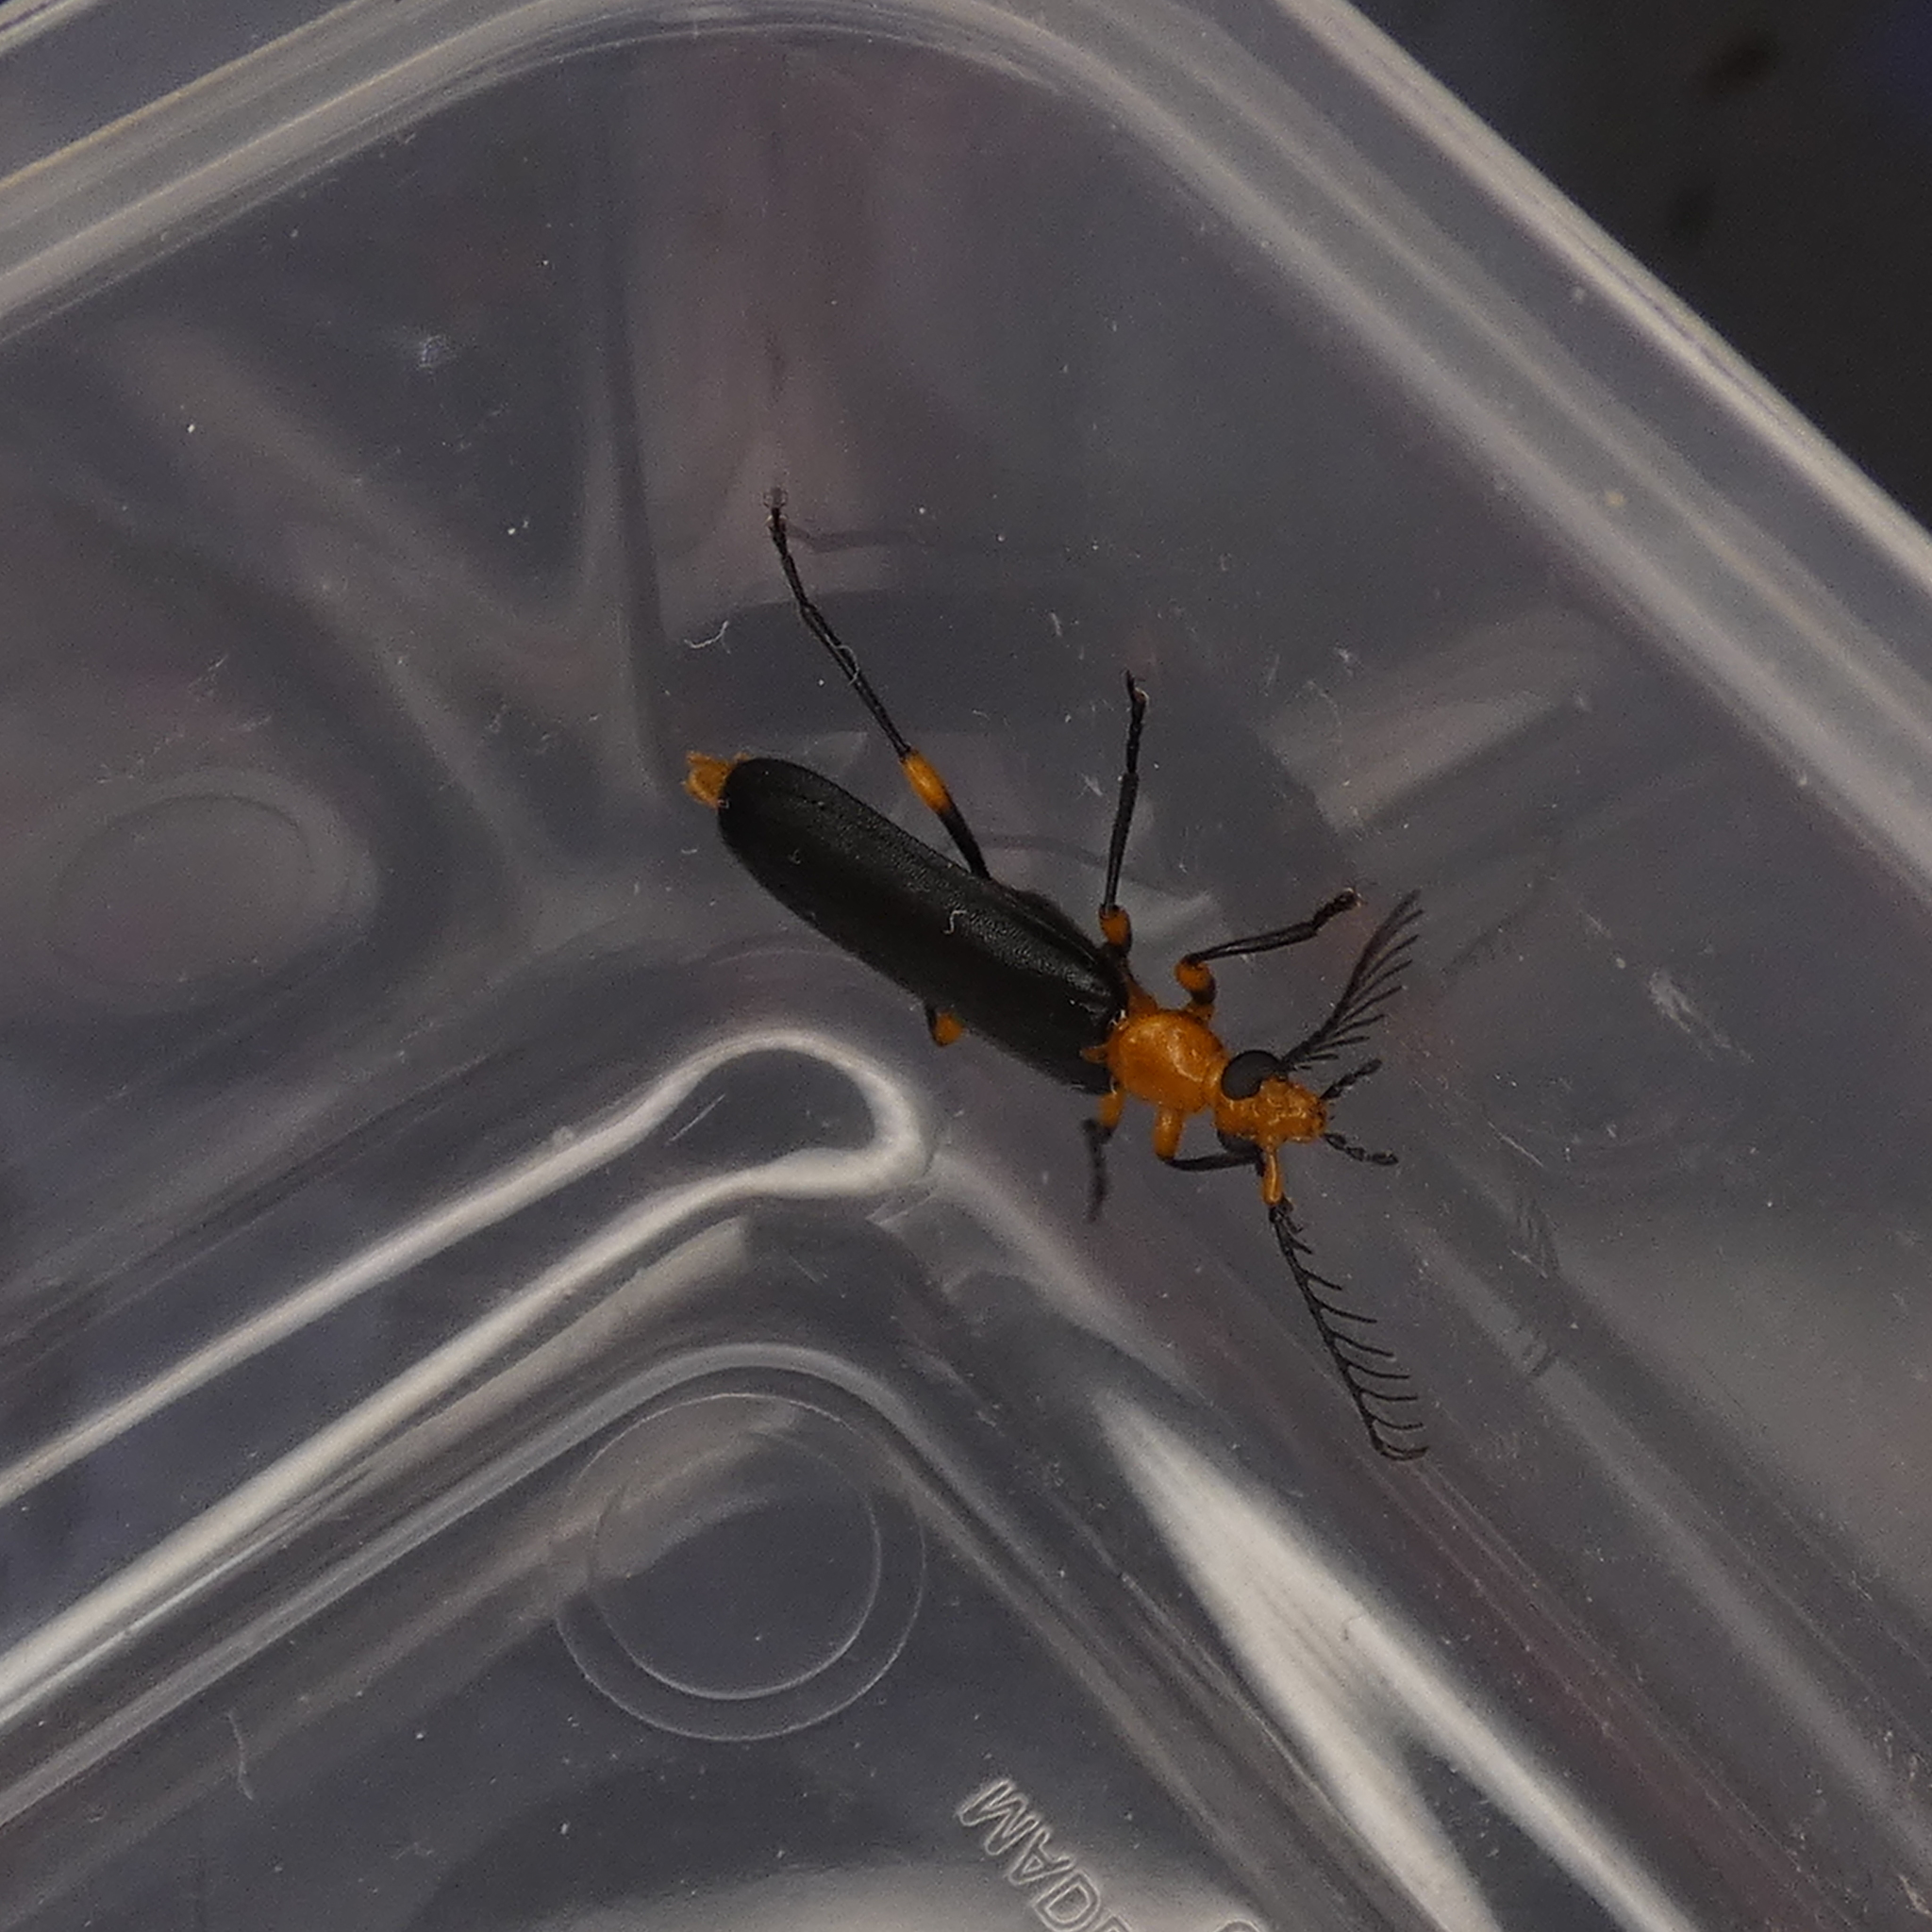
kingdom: Animalia
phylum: Arthropoda
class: Insecta
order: Coleoptera
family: Pyrochroidae
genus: Neopyrochroa
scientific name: Neopyrochroa femoralis
